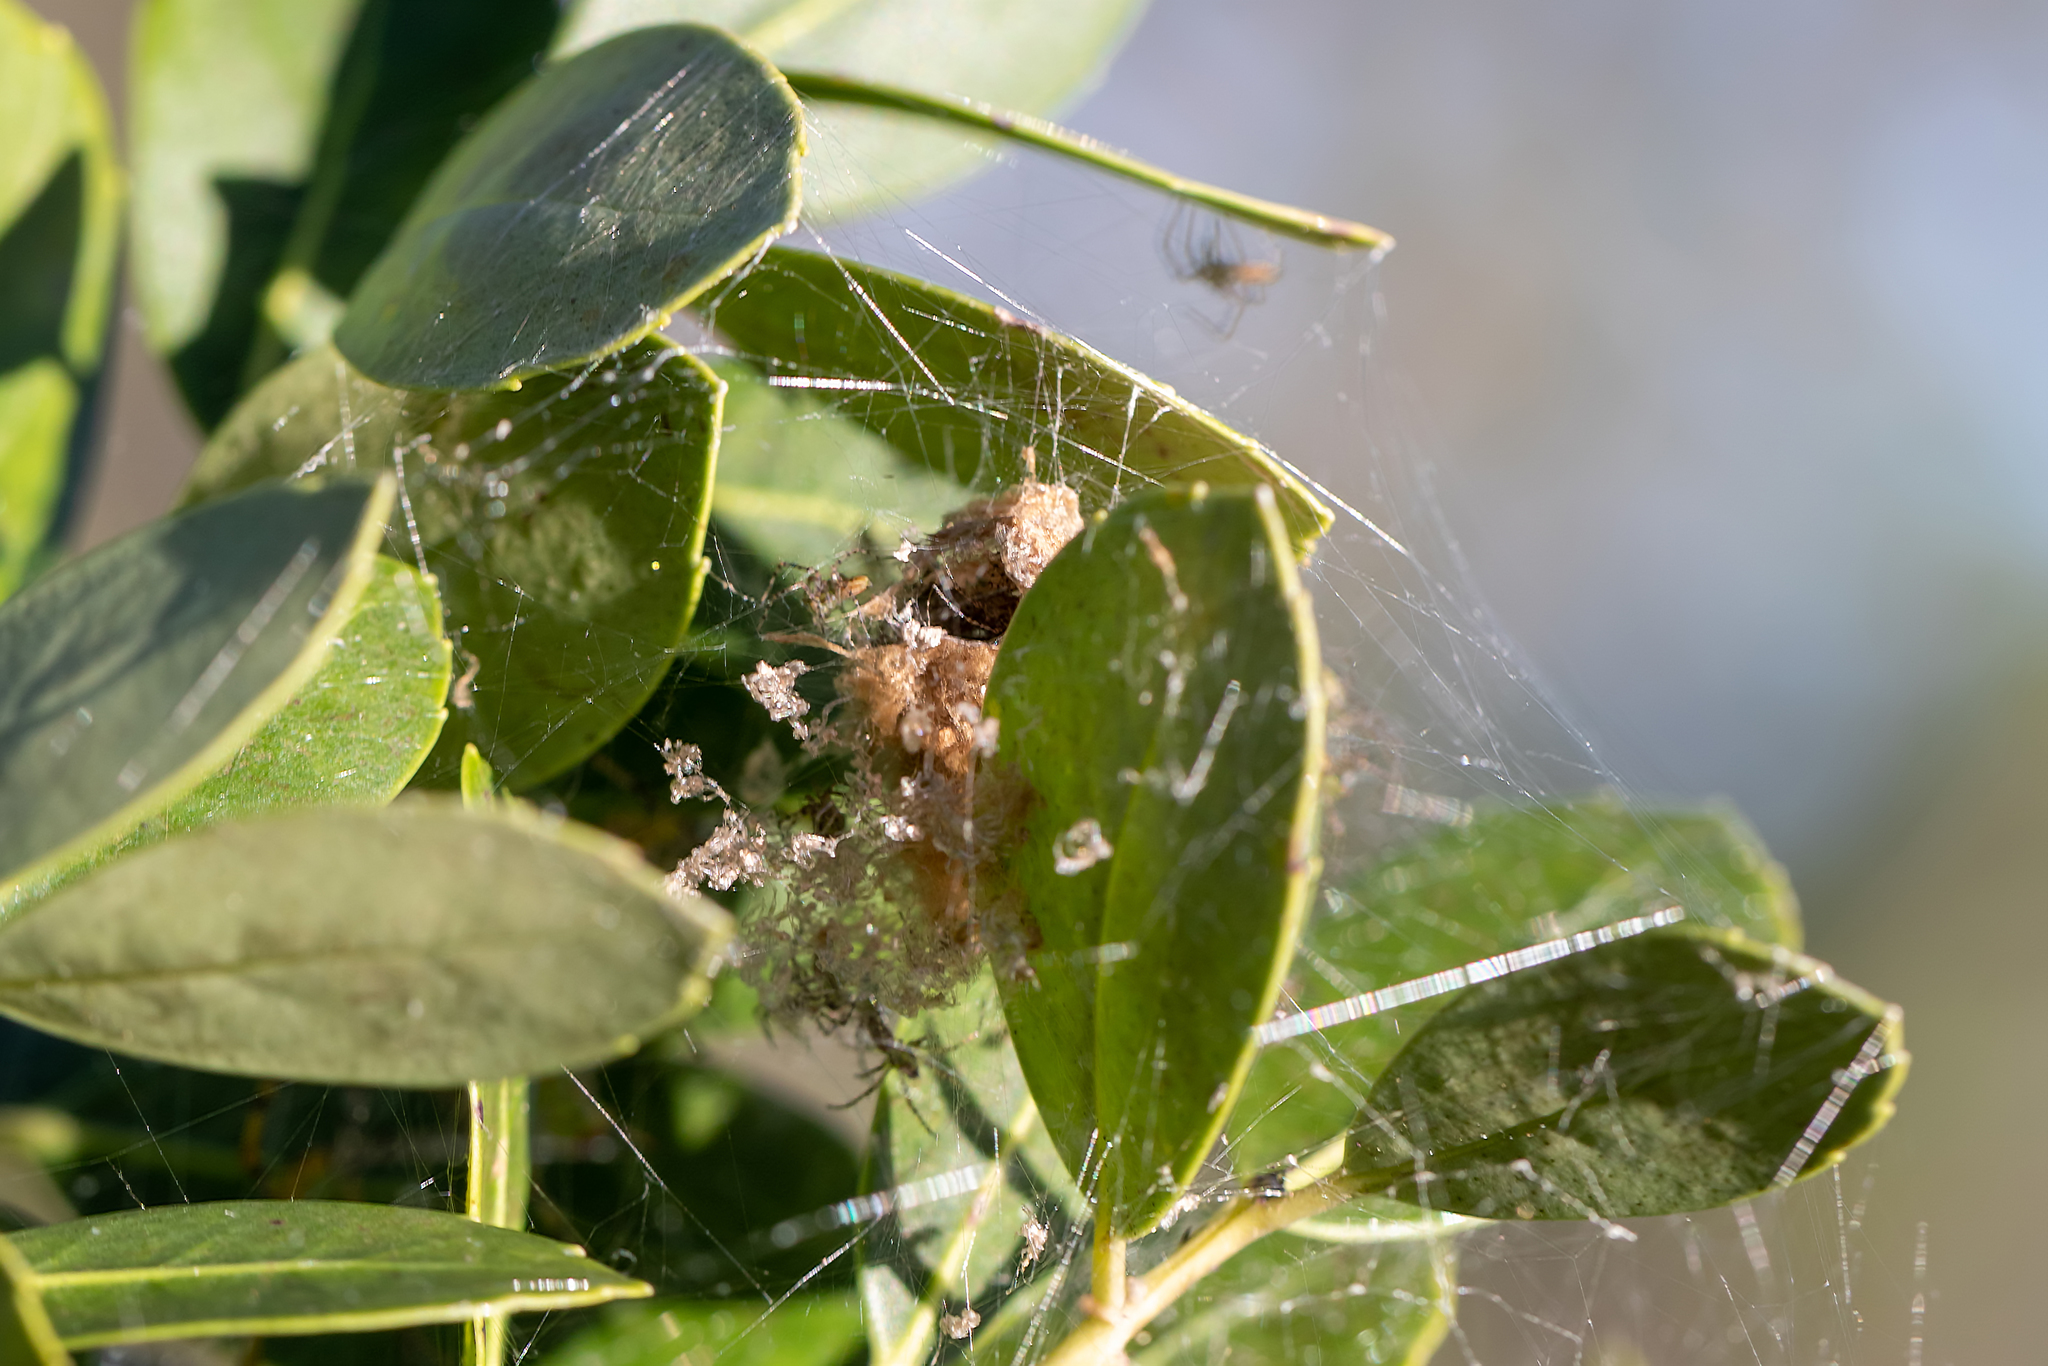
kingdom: Animalia
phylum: Arthropoda
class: Arachnida
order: Araneae
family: Oxyopidae
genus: Peucetia
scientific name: Peucetia viridans
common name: Lynx spiders
